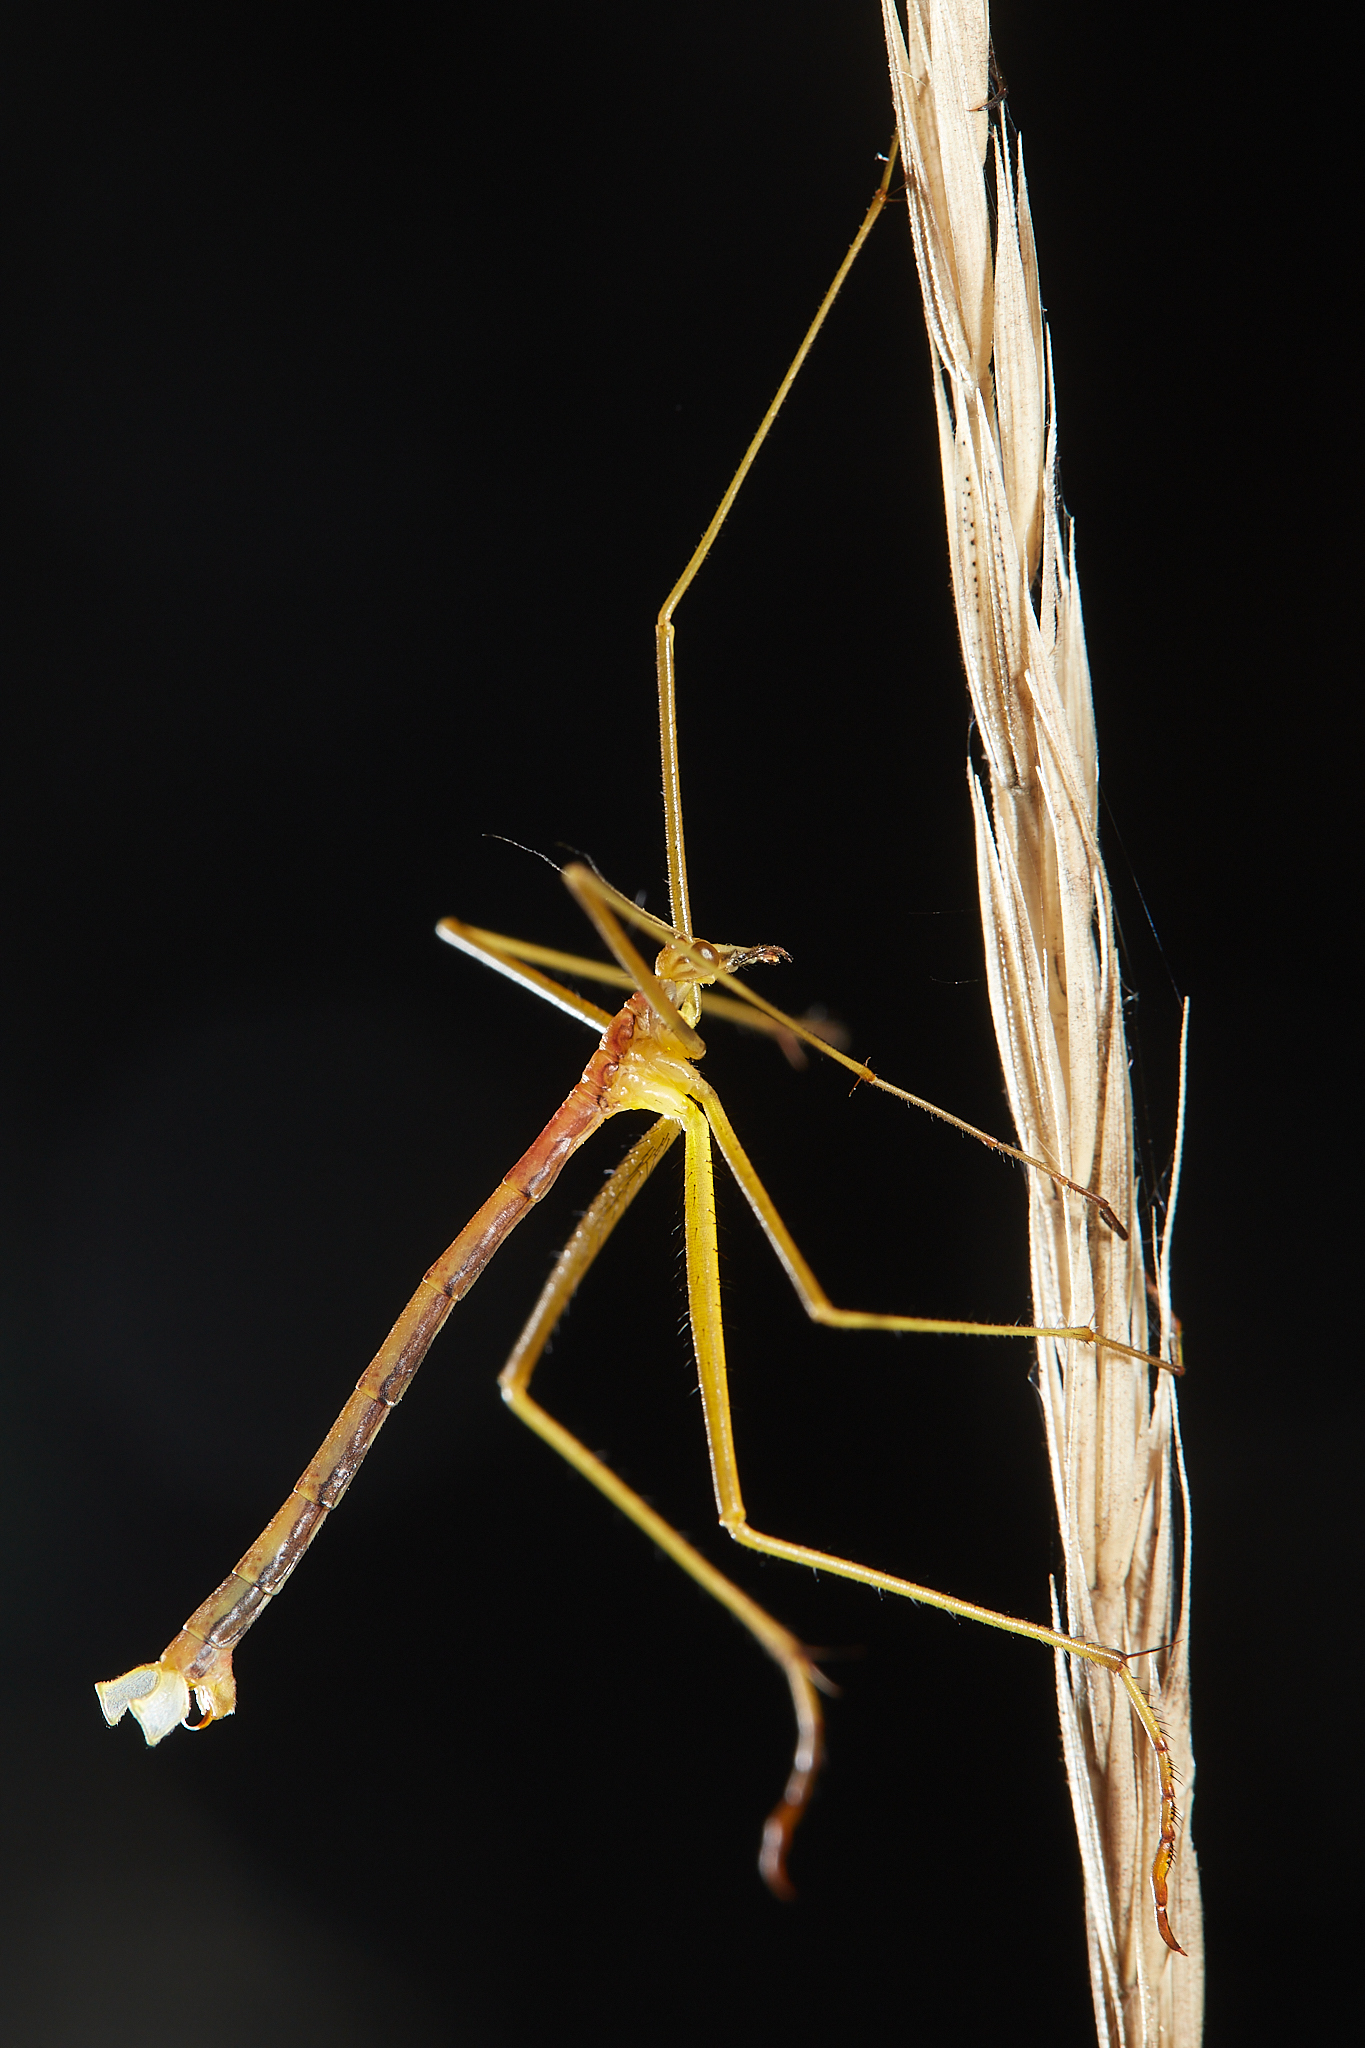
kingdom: Animalia
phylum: Arthropoda
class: Insecta
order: Mecoptera
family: Bittacidae
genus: Apterobittacus
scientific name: Apterobittacus apterus
